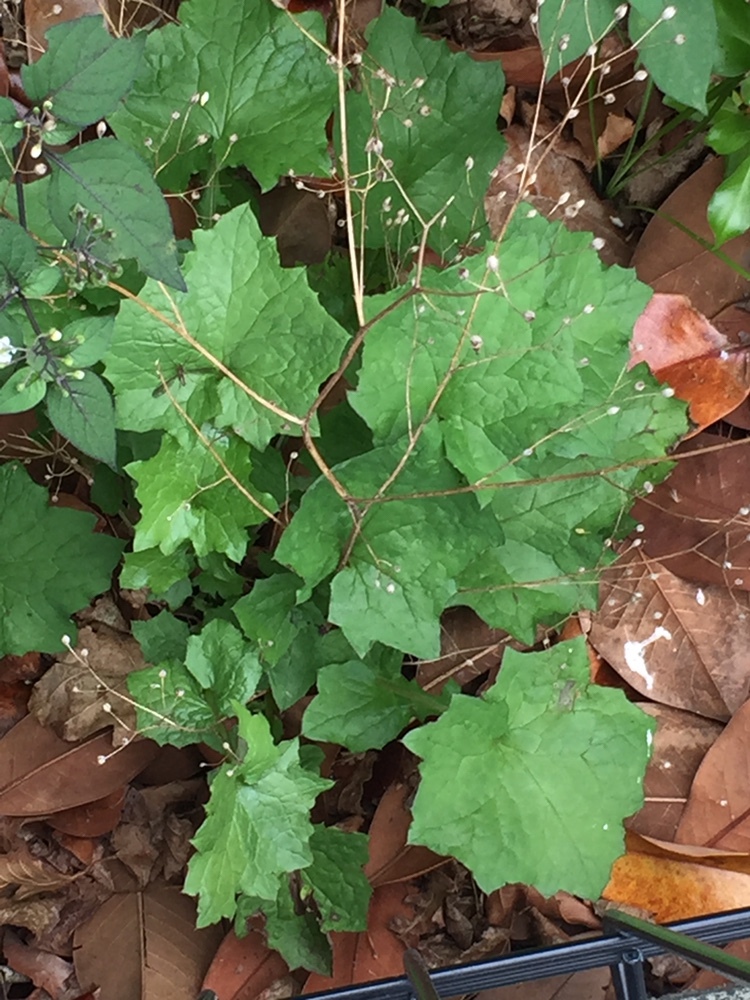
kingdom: Plantae
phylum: Tracheophyta
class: Magnoliopsida
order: Asterales
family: Asteraceae
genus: Mycelis
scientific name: Mycelis muralis
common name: Wall lettuce
